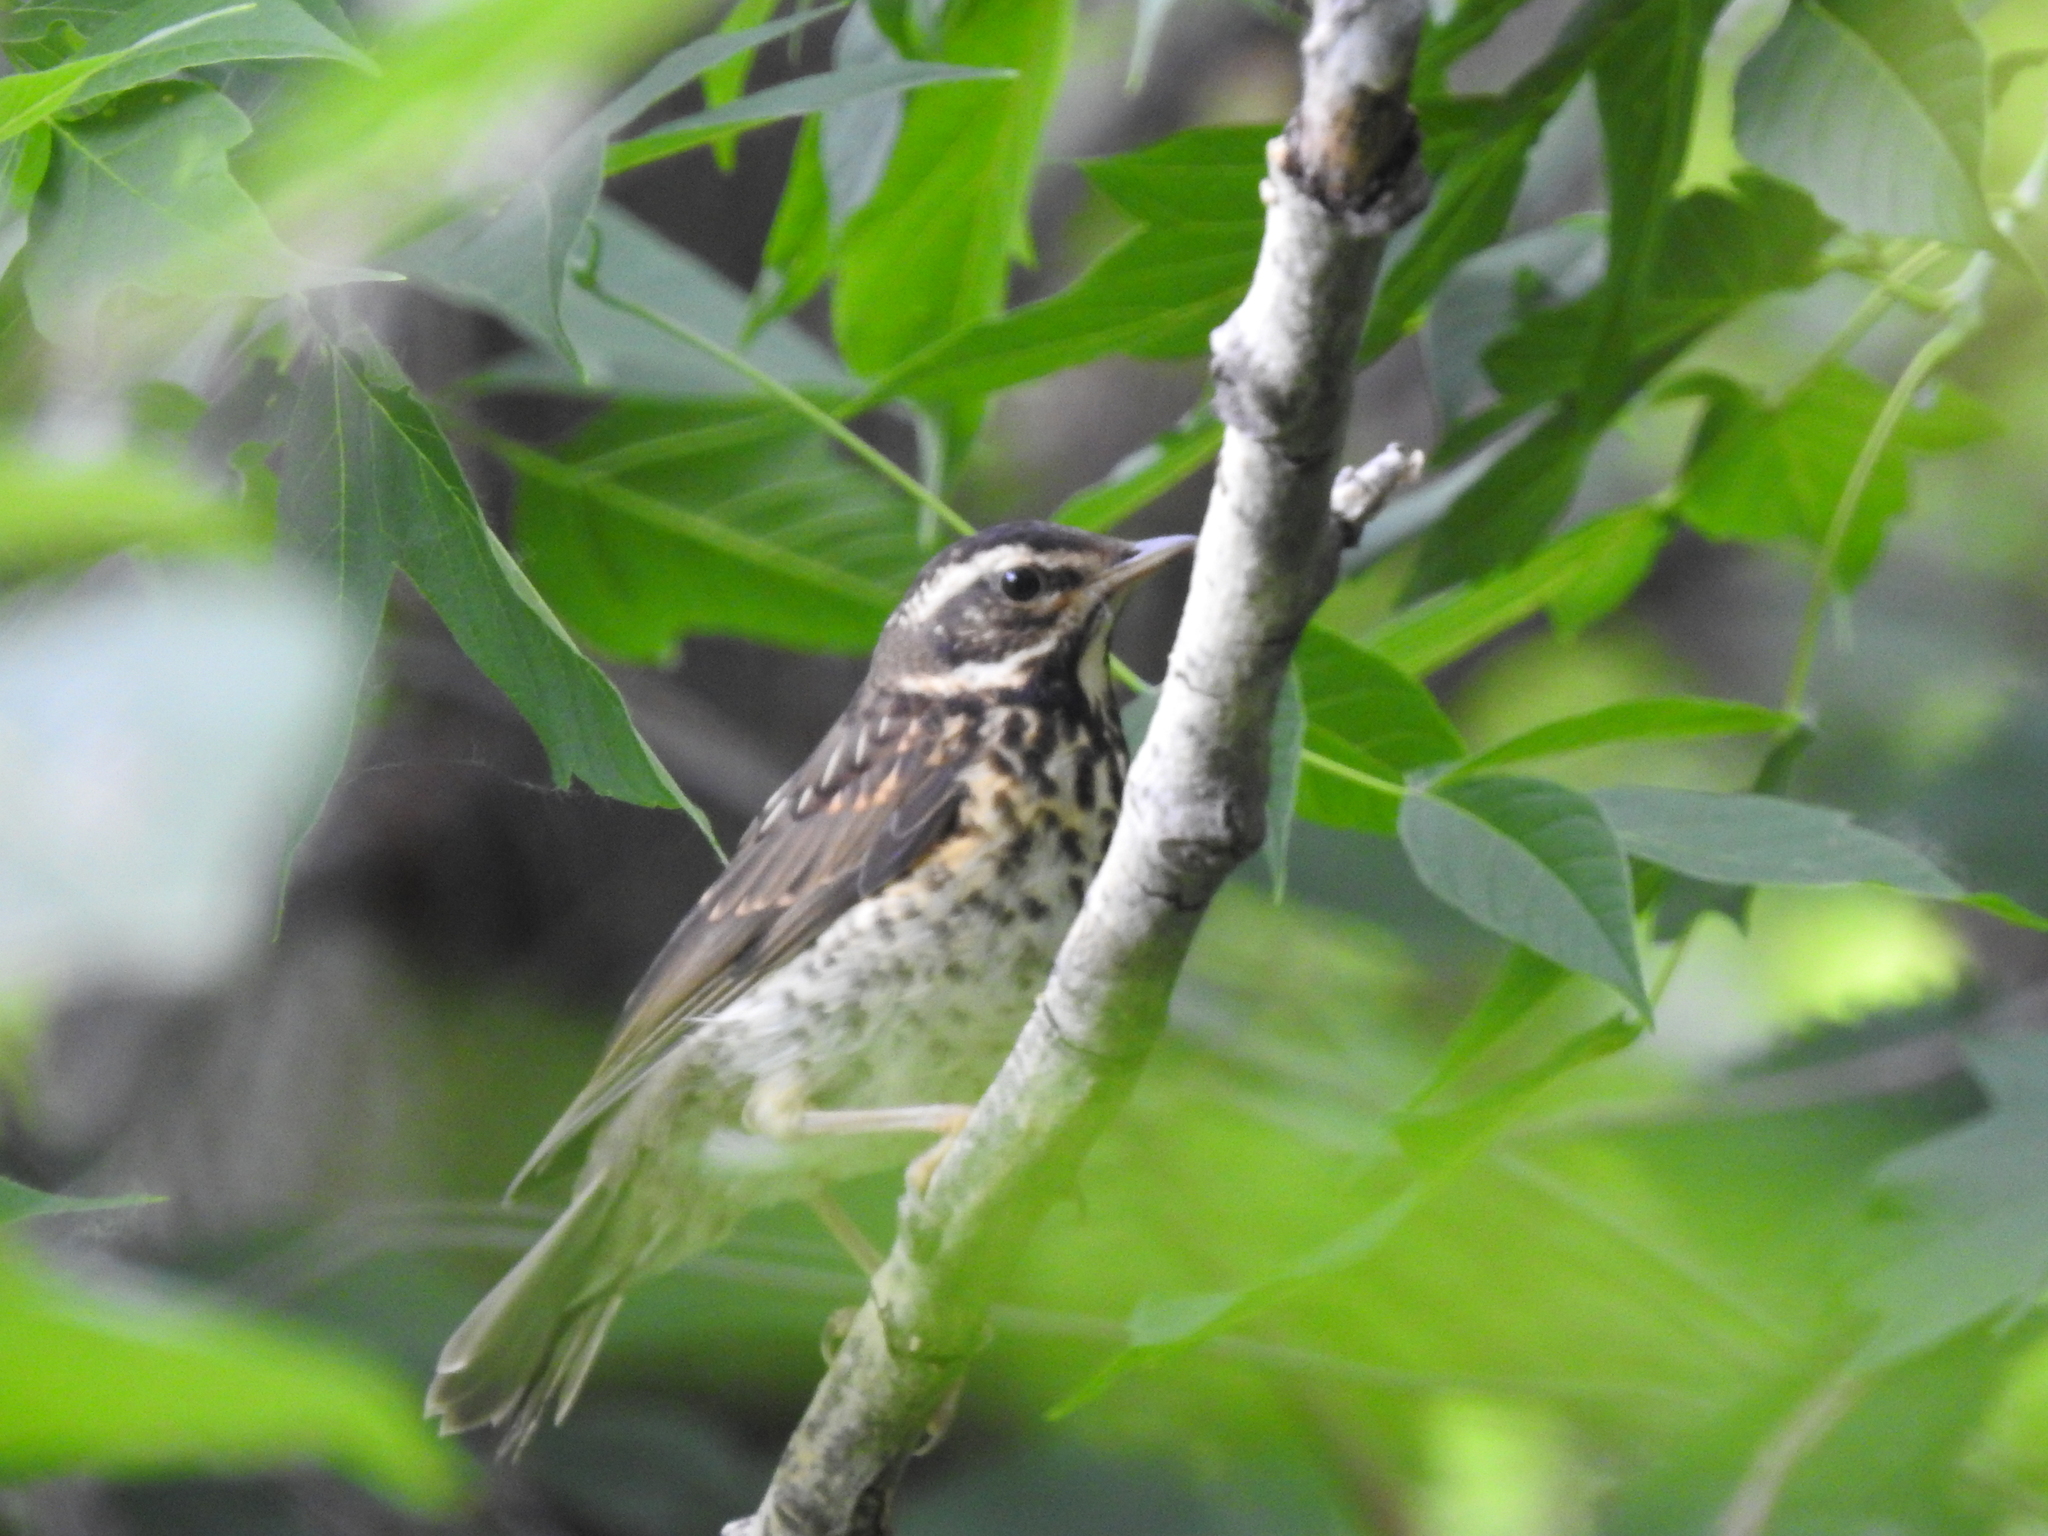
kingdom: Animalia
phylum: Chordata
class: Aves
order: Passeriformes
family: Turdidae
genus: Turdus
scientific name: Turdus iliacus
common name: Redwing
